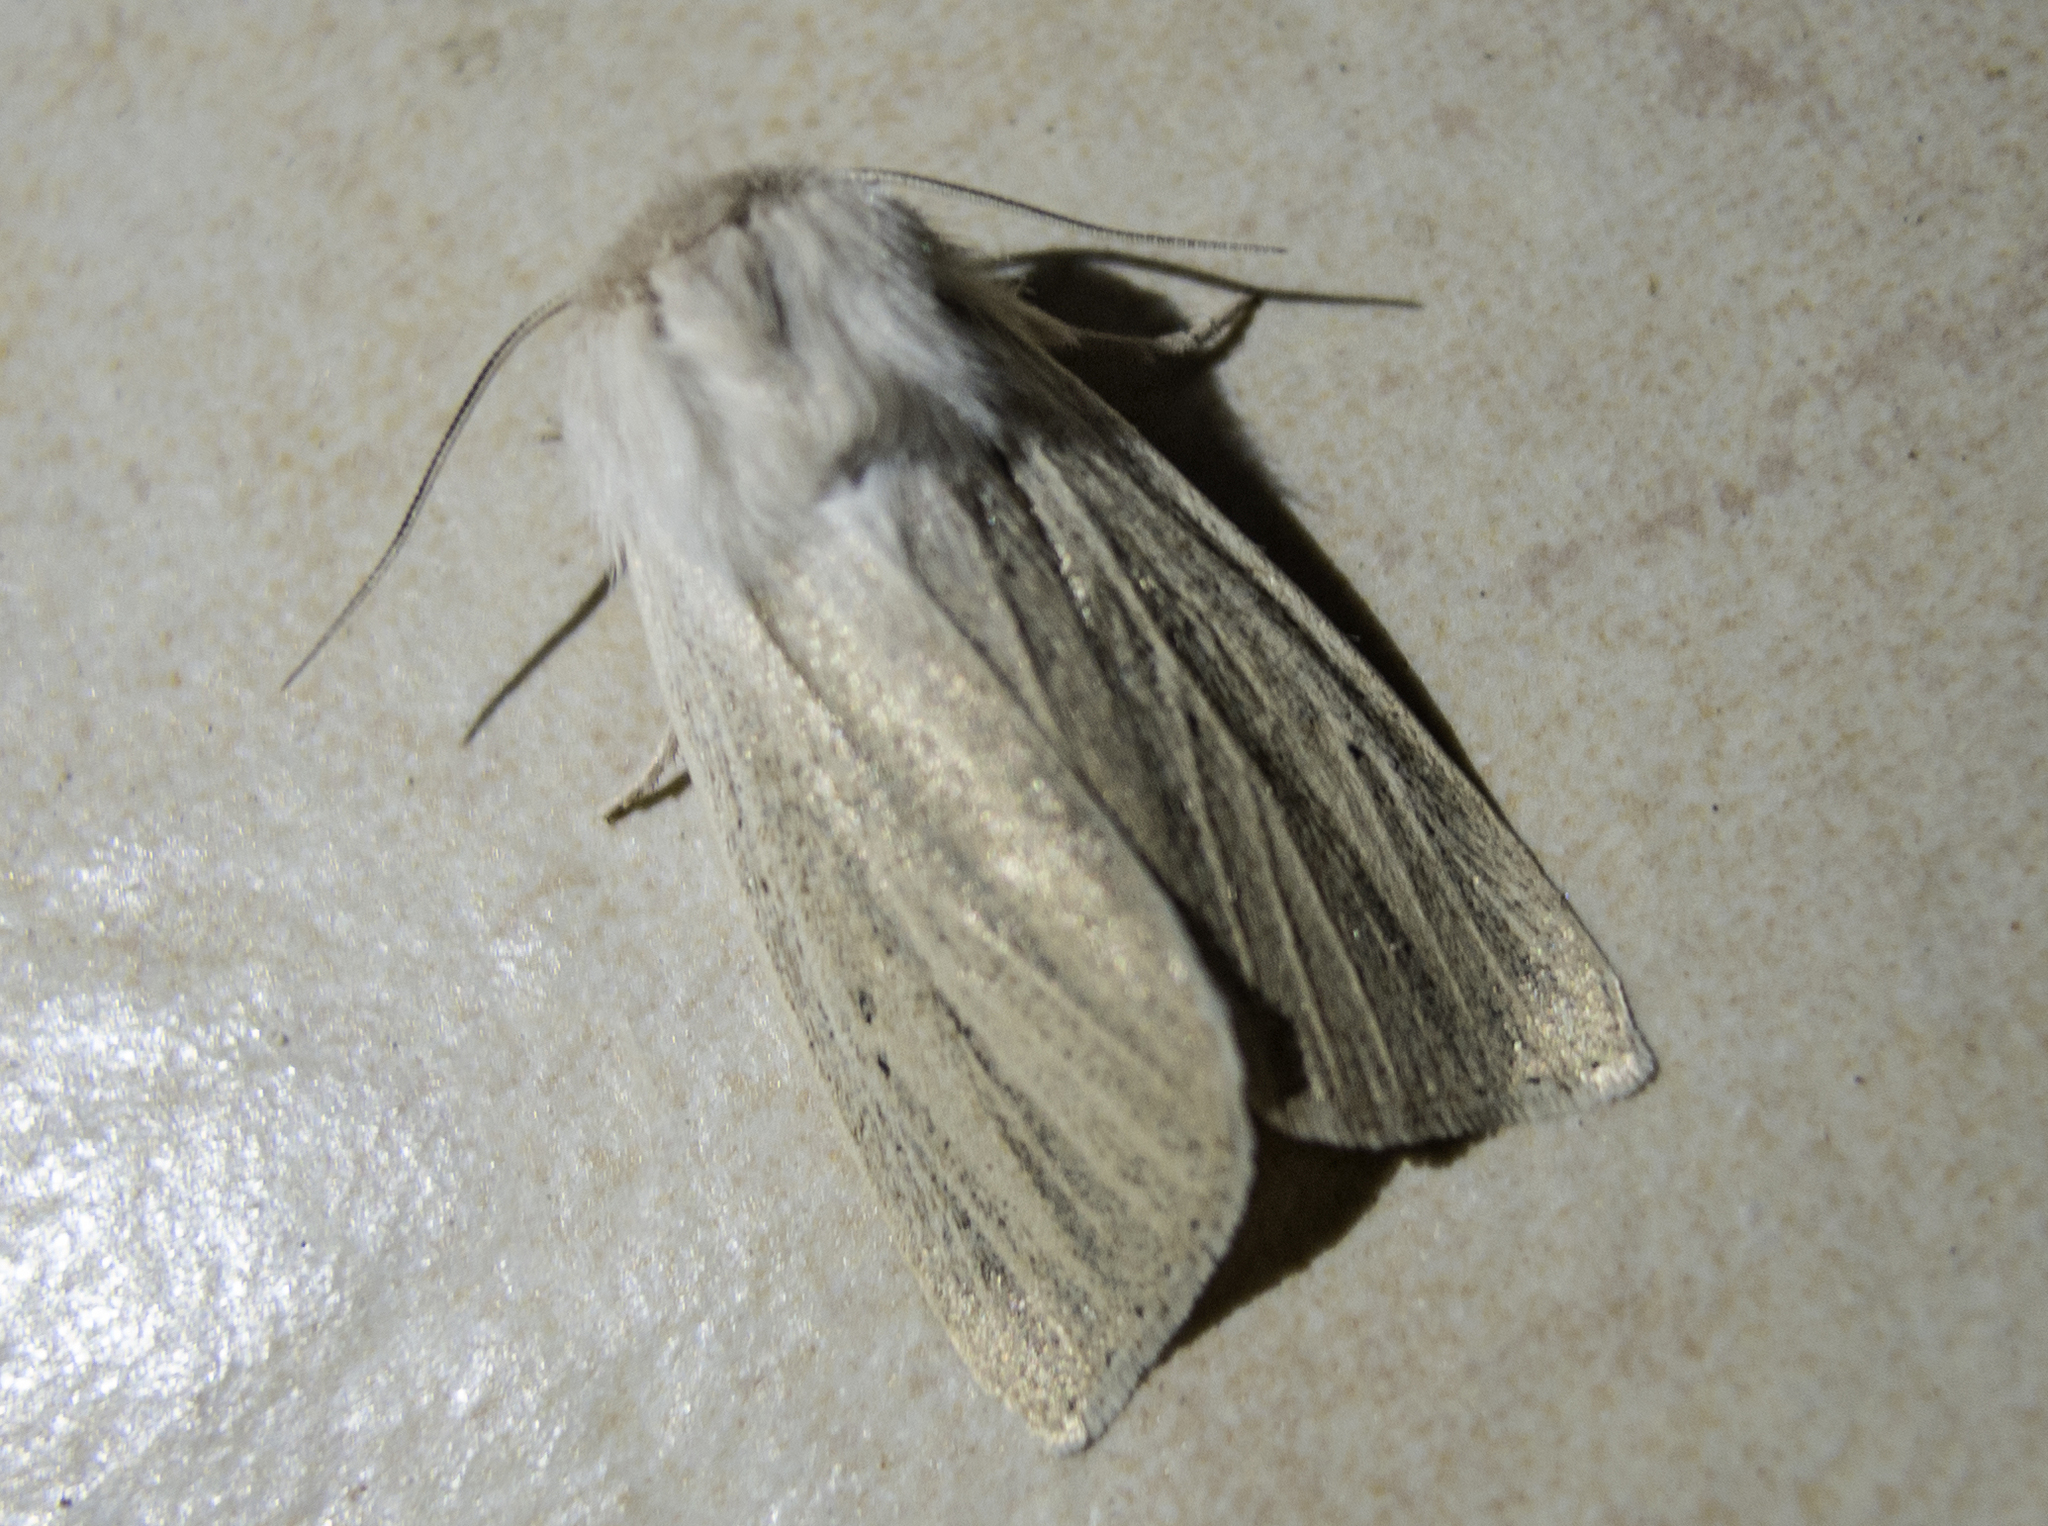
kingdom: Animalia
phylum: Arthropoda
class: Insecta
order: Lepidoptera
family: Noctuidae
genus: Simyra
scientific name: Simyra albovenosa
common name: Reed dagger
